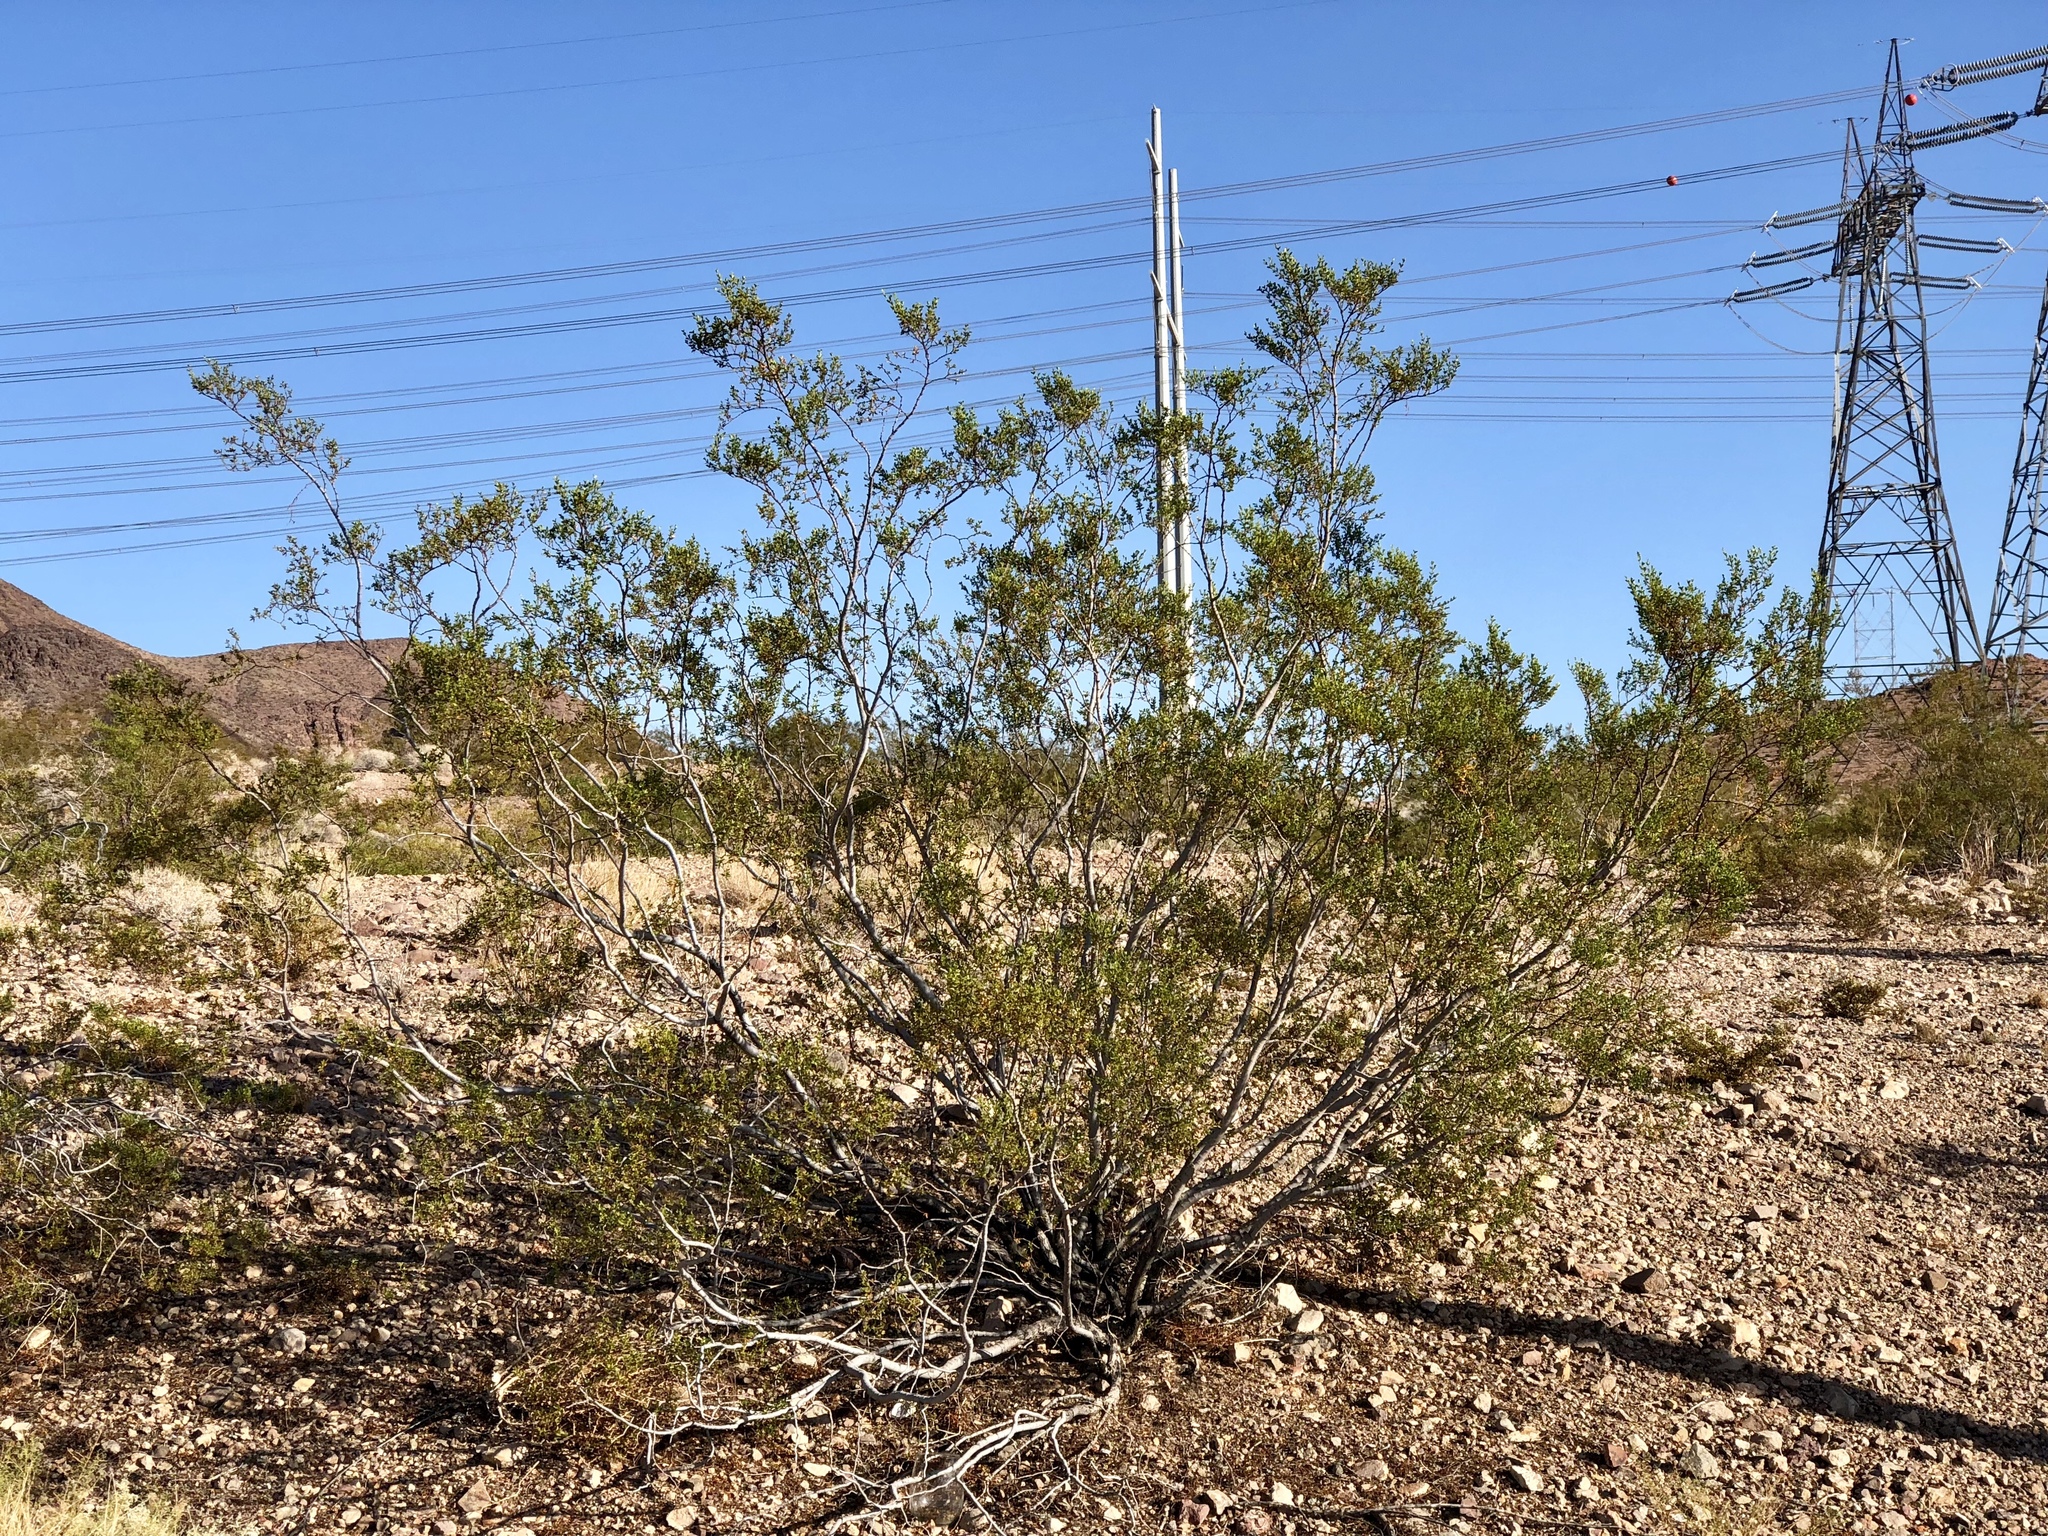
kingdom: Plantae
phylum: Tracheophyta
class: Magnoliopsida
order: Zygophyllales
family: Zygophyllaceae
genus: Larrea
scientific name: Larrea tridentata
